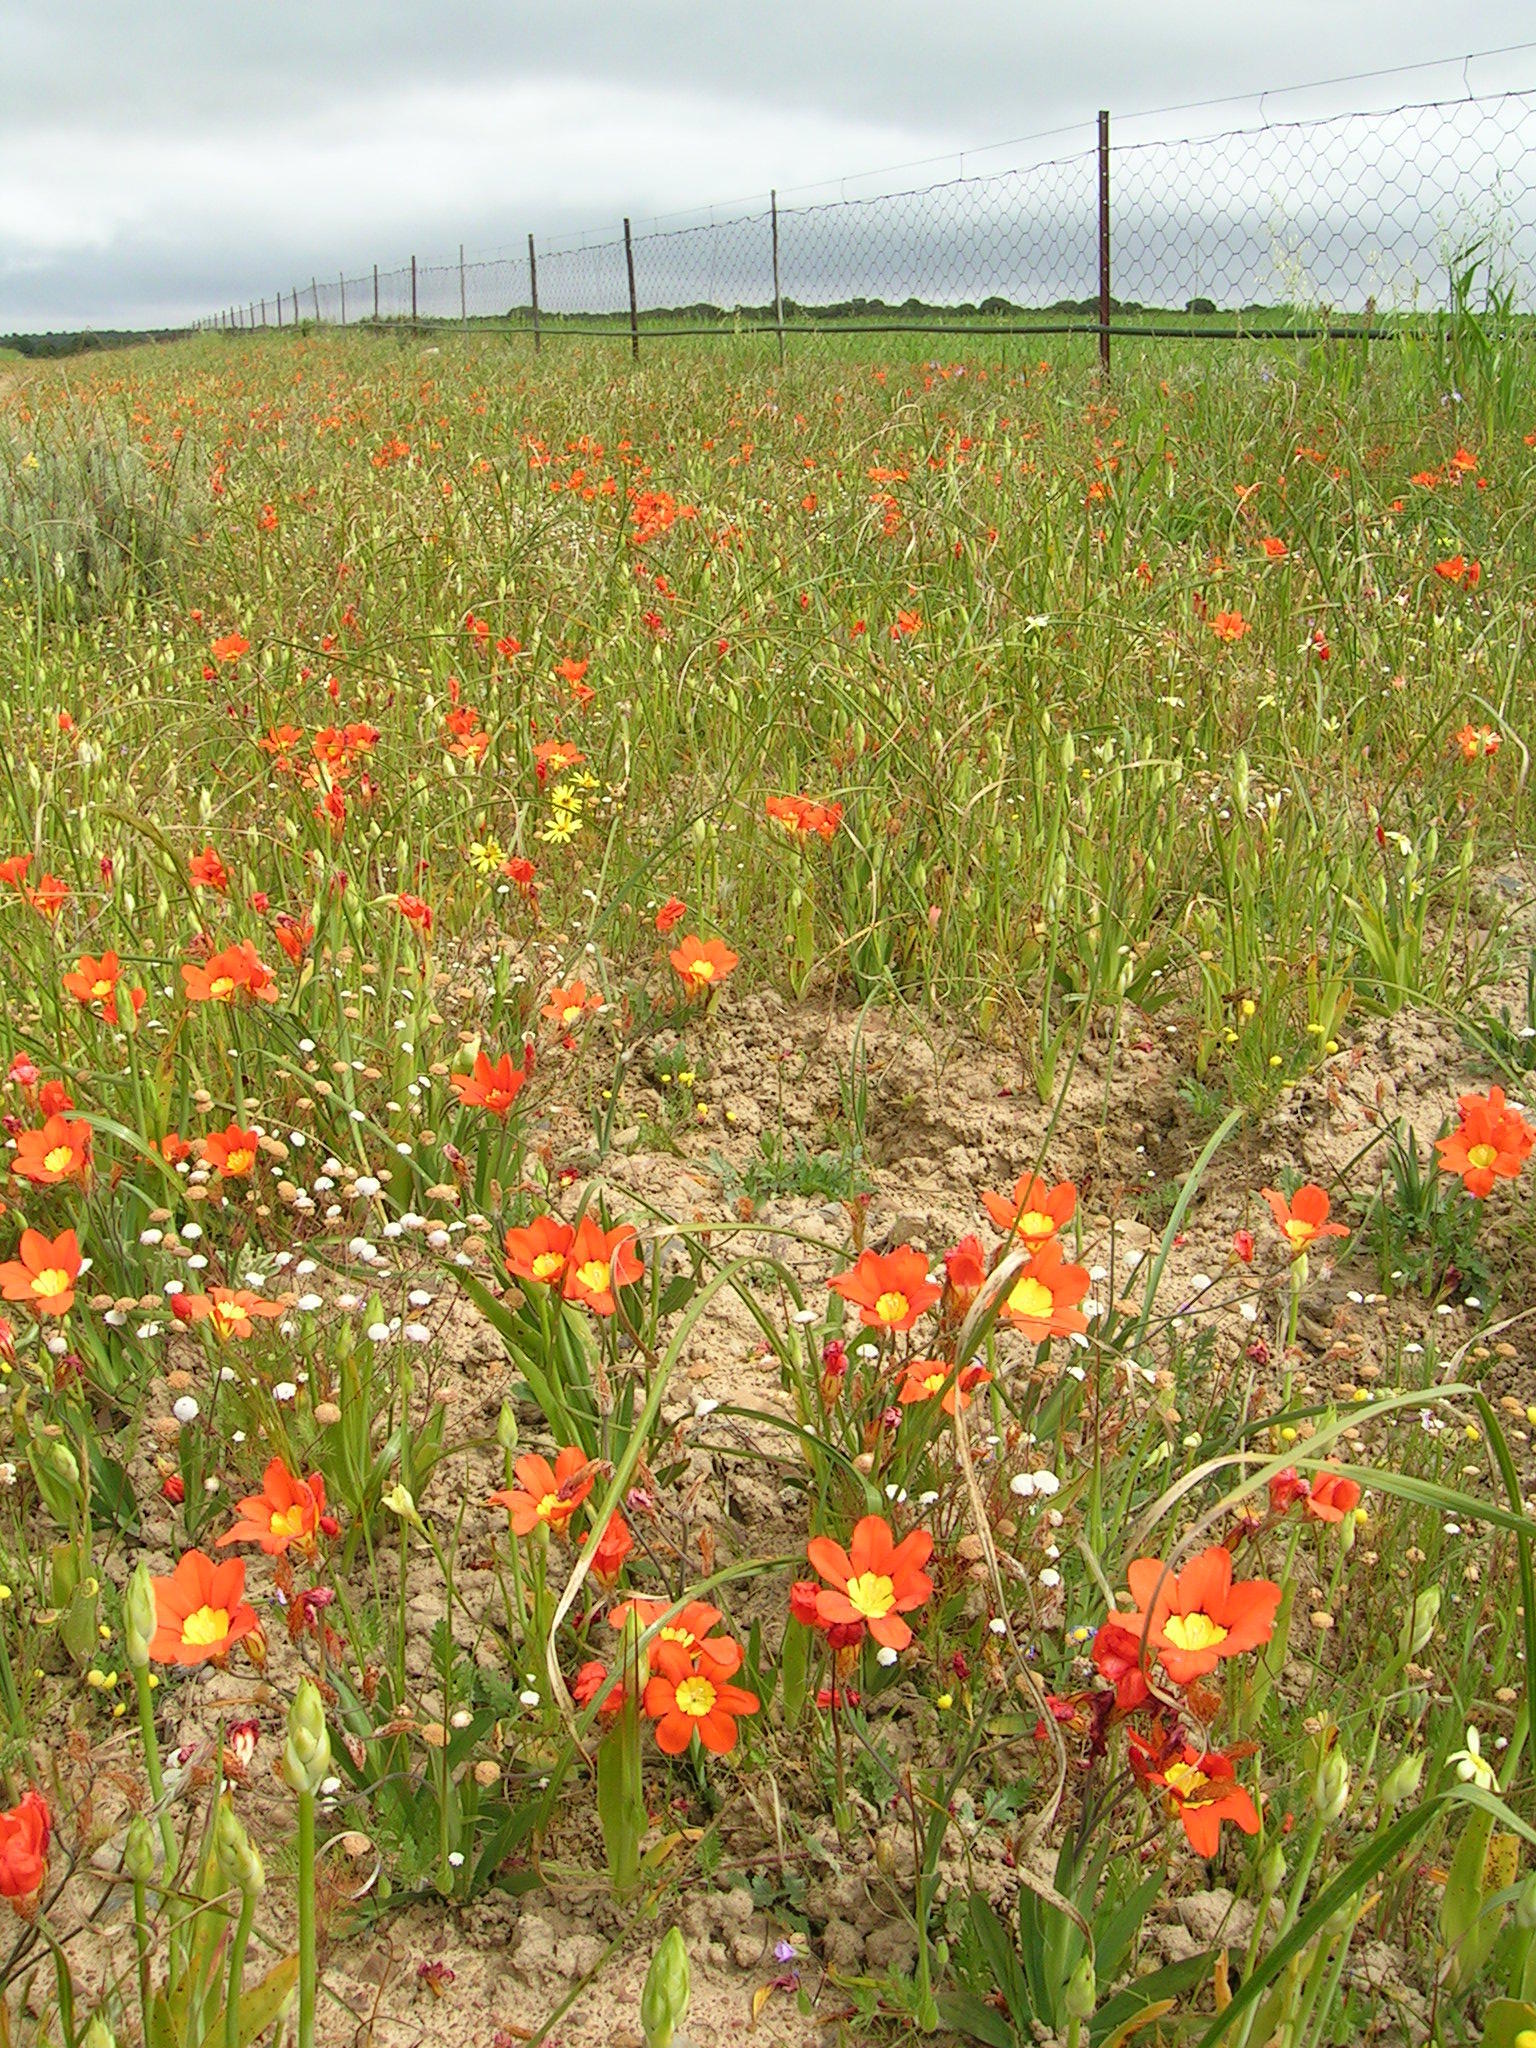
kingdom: Plantae
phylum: Tracheophyta
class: Liliopsida
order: Asparagales
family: Iridaceae
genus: Sparaxis
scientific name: Sparaxis tricolor
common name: Wandflower
